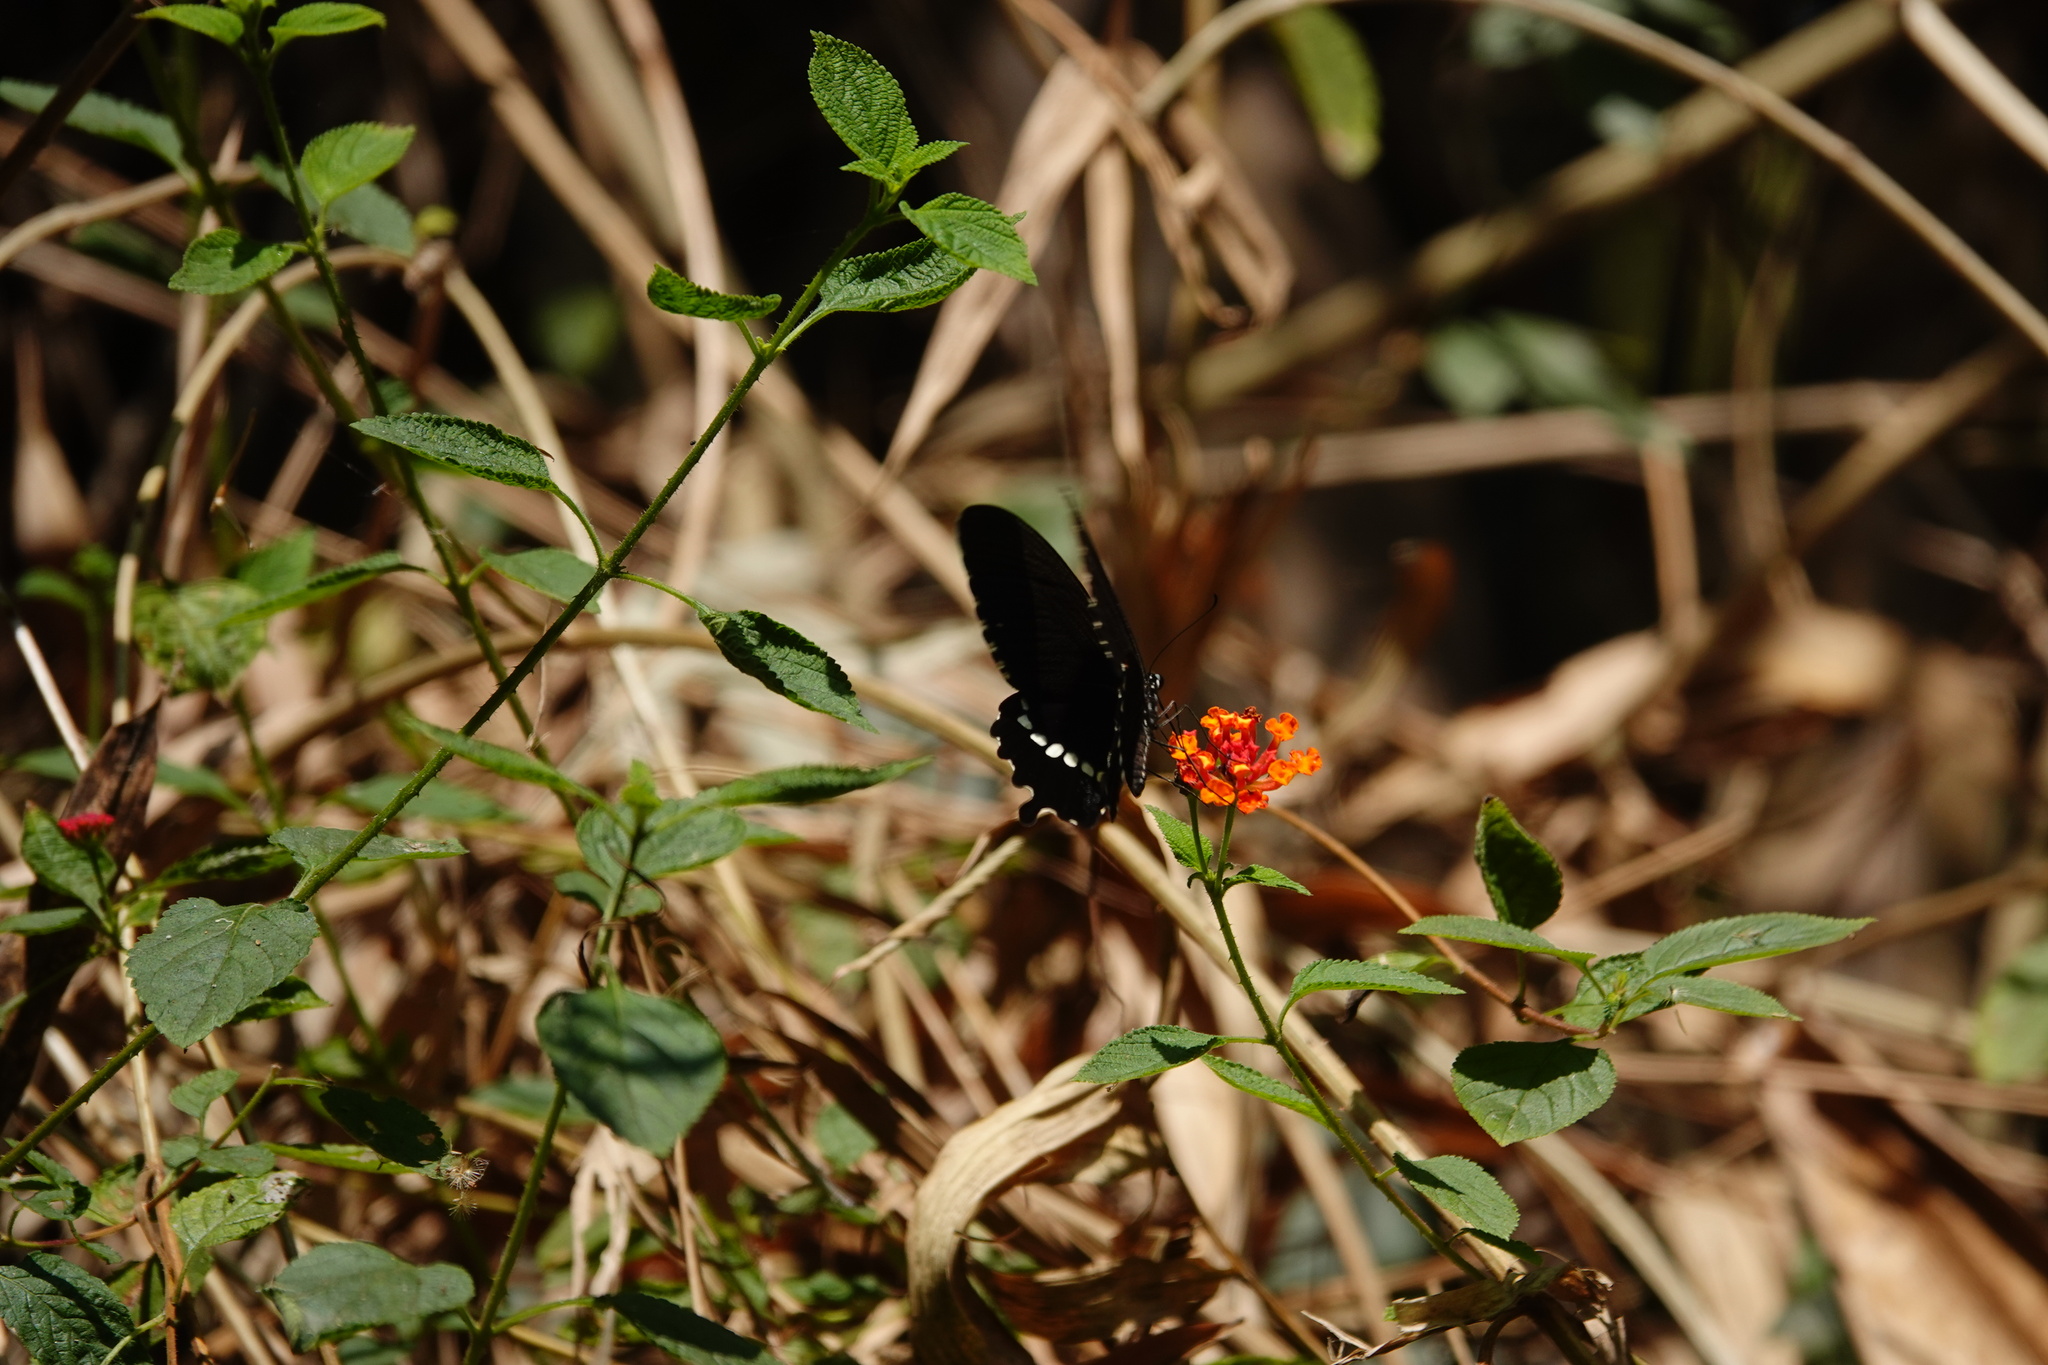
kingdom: Animalia
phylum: Arthropoda
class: Insecta
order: Lepidoptera
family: Papilionidae
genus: Papilio
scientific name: Papilio polytes
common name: Common mormon
